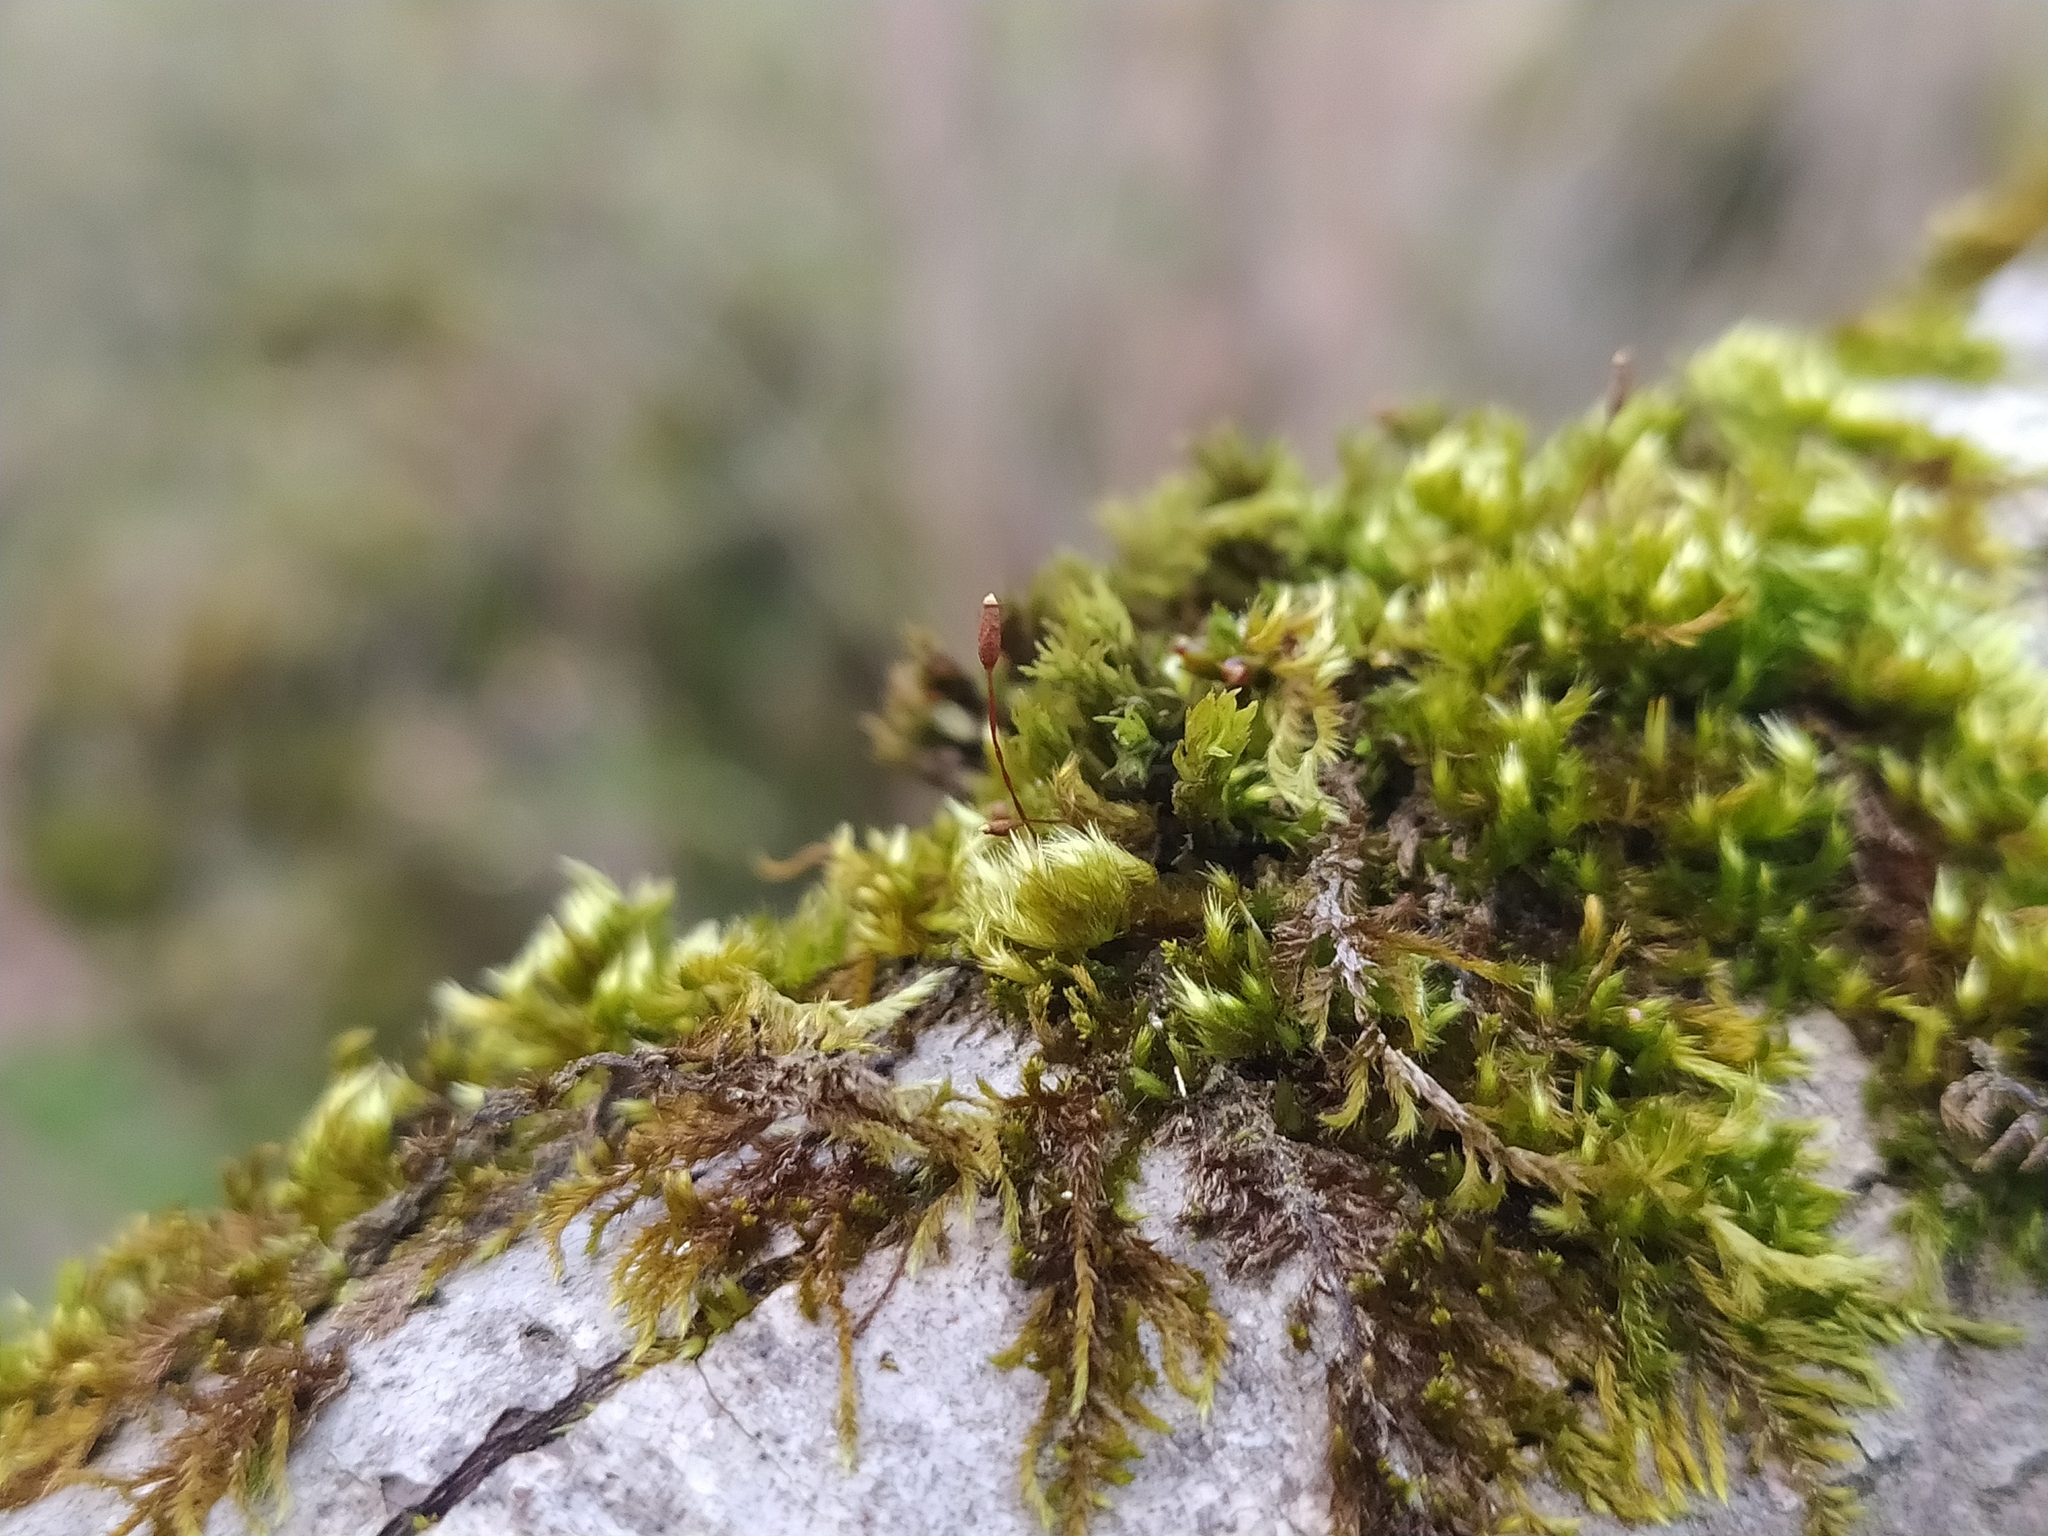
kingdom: Plantae
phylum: Bryophyta
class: Bryopsida
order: Hypnales
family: Pylaisiaceae
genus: Pylaisia
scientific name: Pylaisia polyantha
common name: Many-flowered leskea
